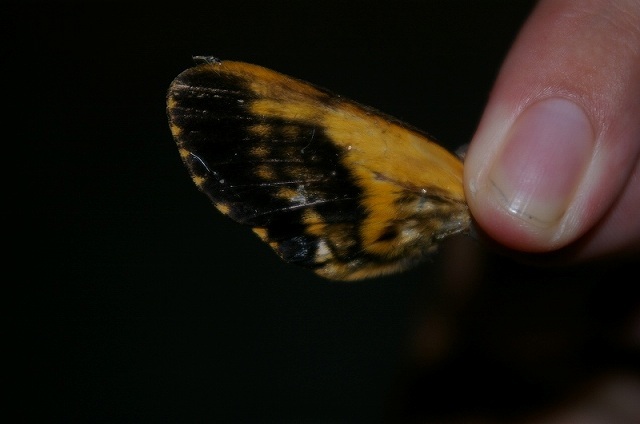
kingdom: Animalia
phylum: Arthropoda
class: Insecta
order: Lepidoptera
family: Sphingidae
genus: Acherontia
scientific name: Acherontia lachesis
